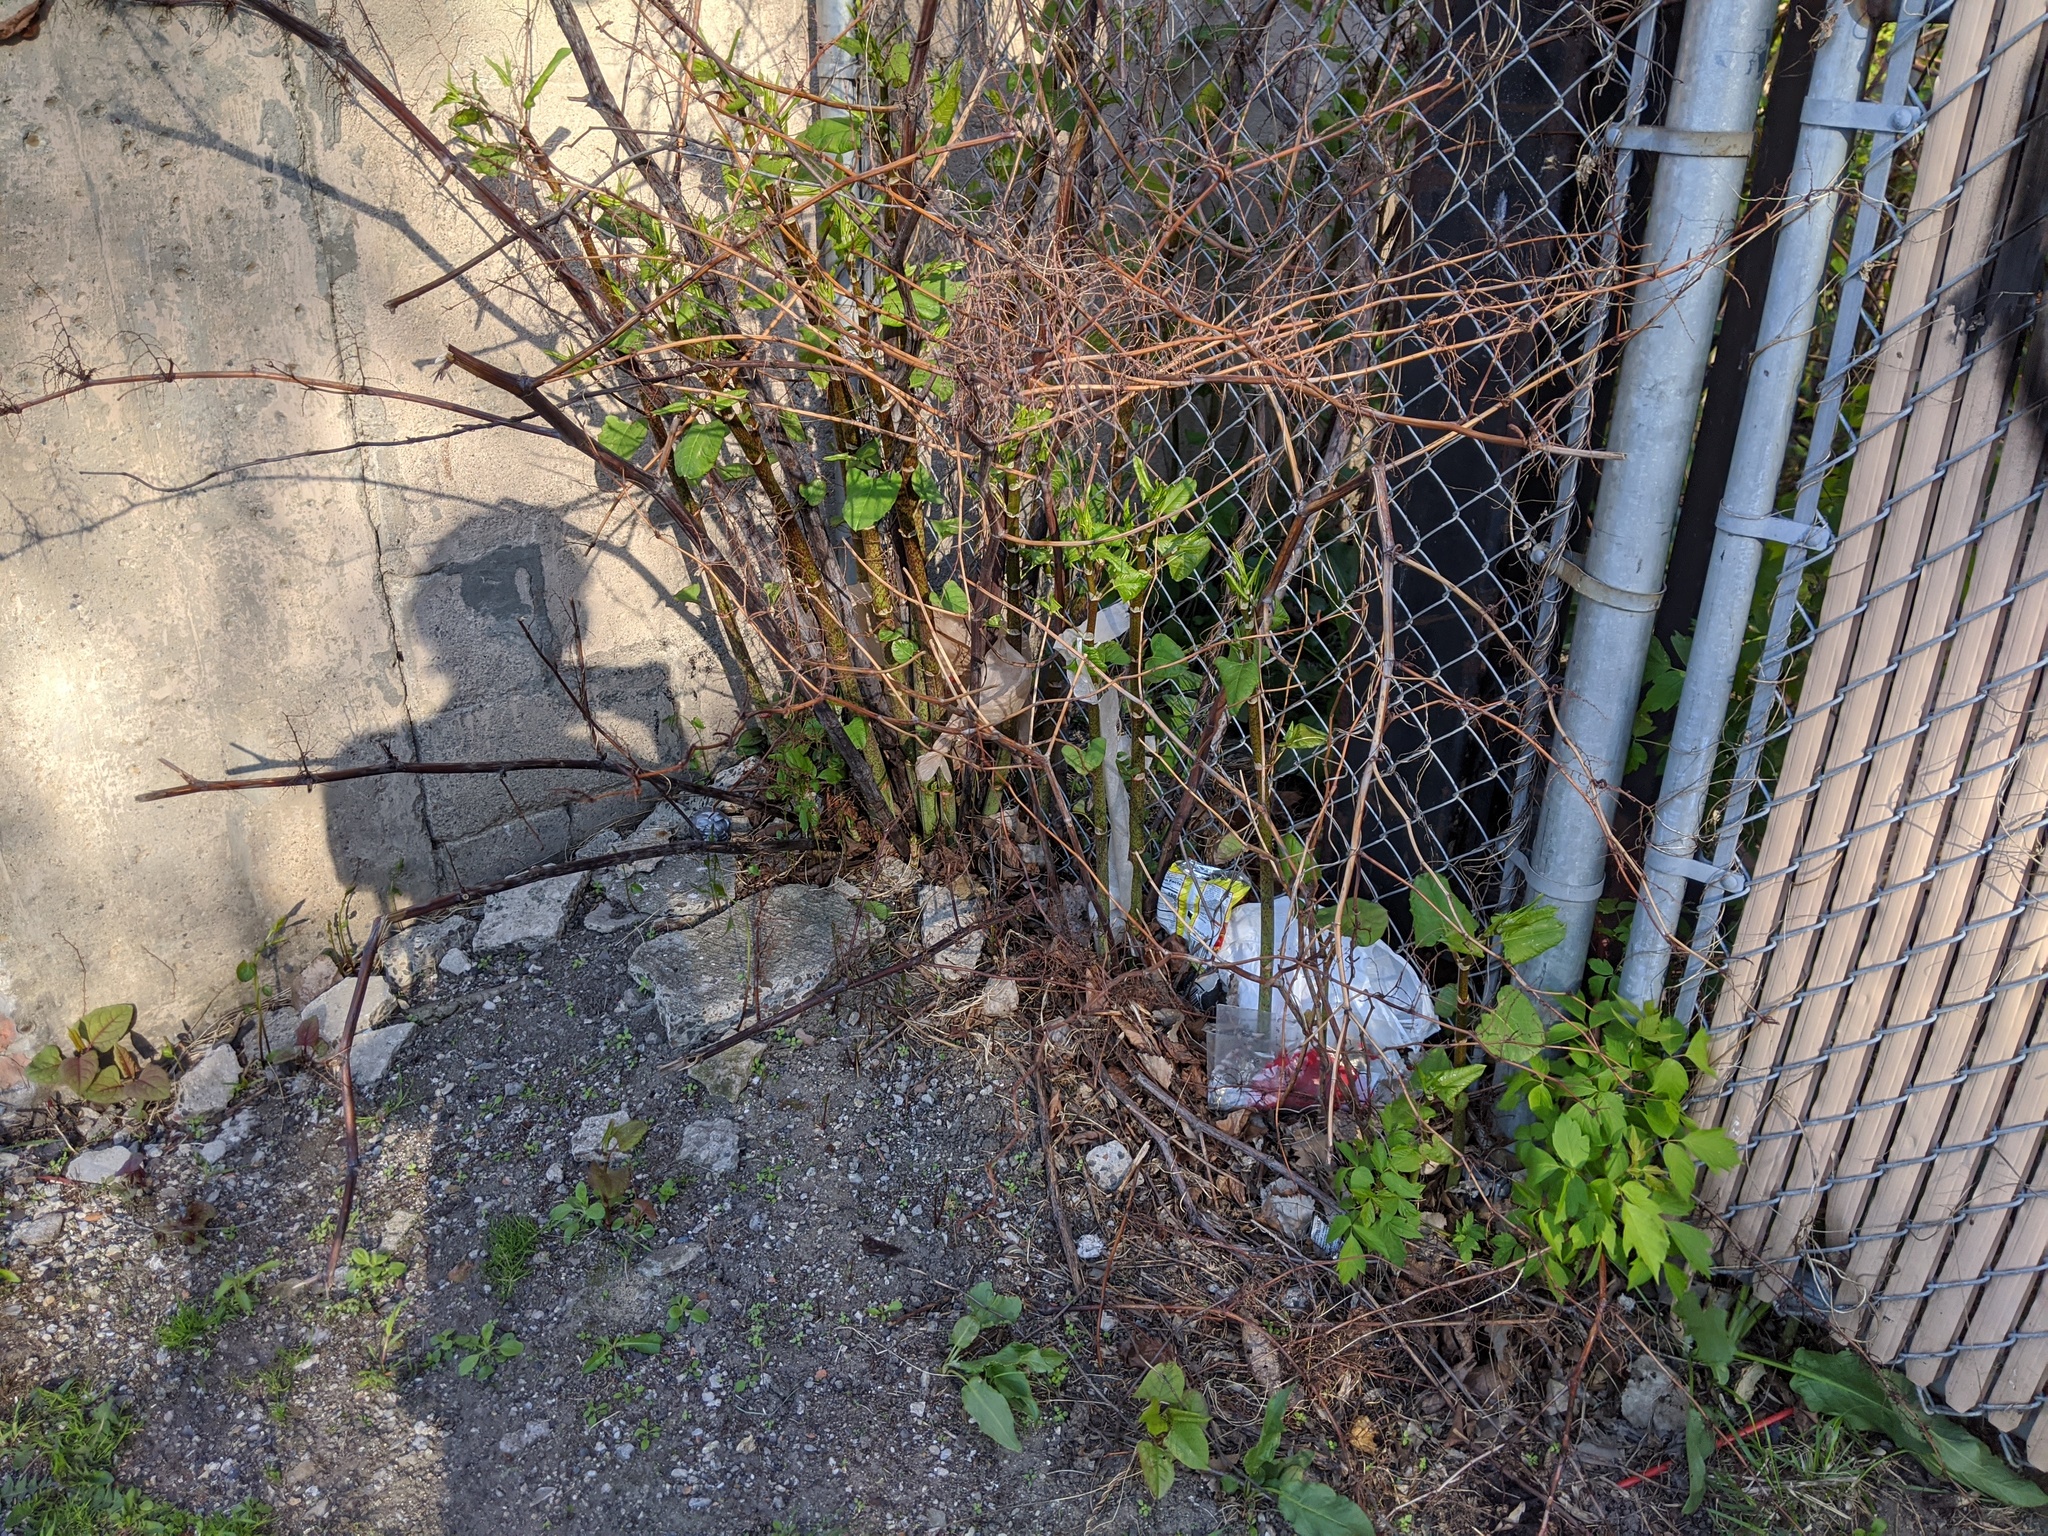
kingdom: Plantae
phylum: Tracheophyta
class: Magnoliopsida
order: Caryophyllales
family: Polygonaceae
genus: Reynoutria
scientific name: Reynoutria japonica
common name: Japanese knotweed
